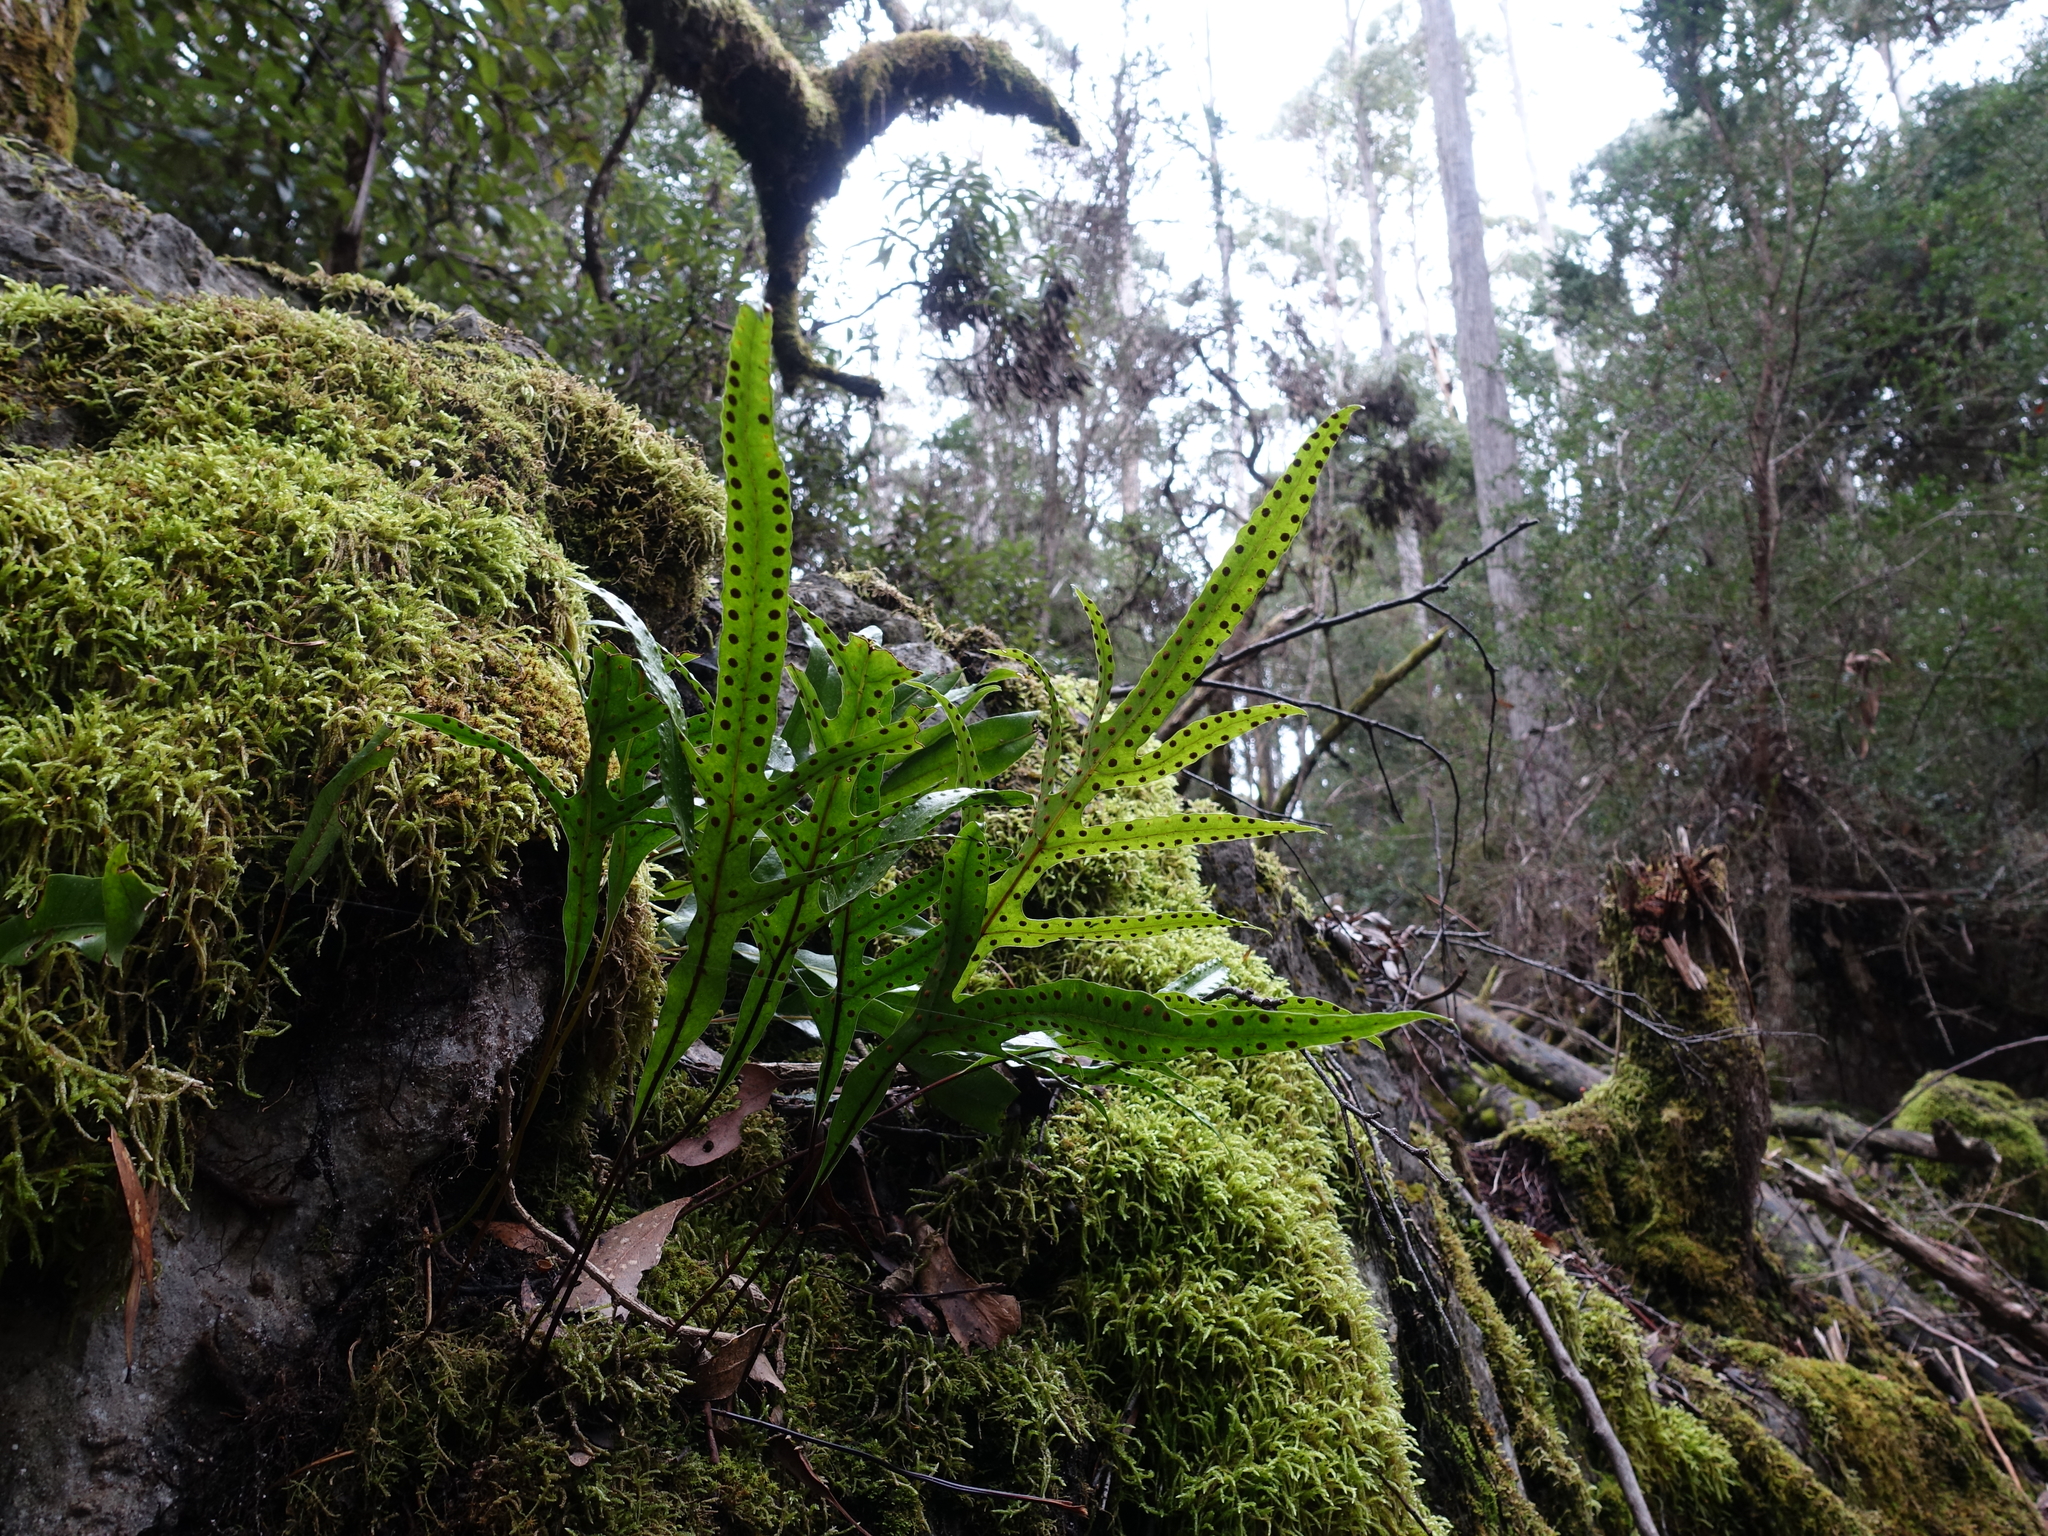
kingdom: Plantae
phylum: Tracheophyta
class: Polypodiopsida
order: Polypodiales
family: Polypodiaceae
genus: Lecanopteris
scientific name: Lecanopteris pustulata
